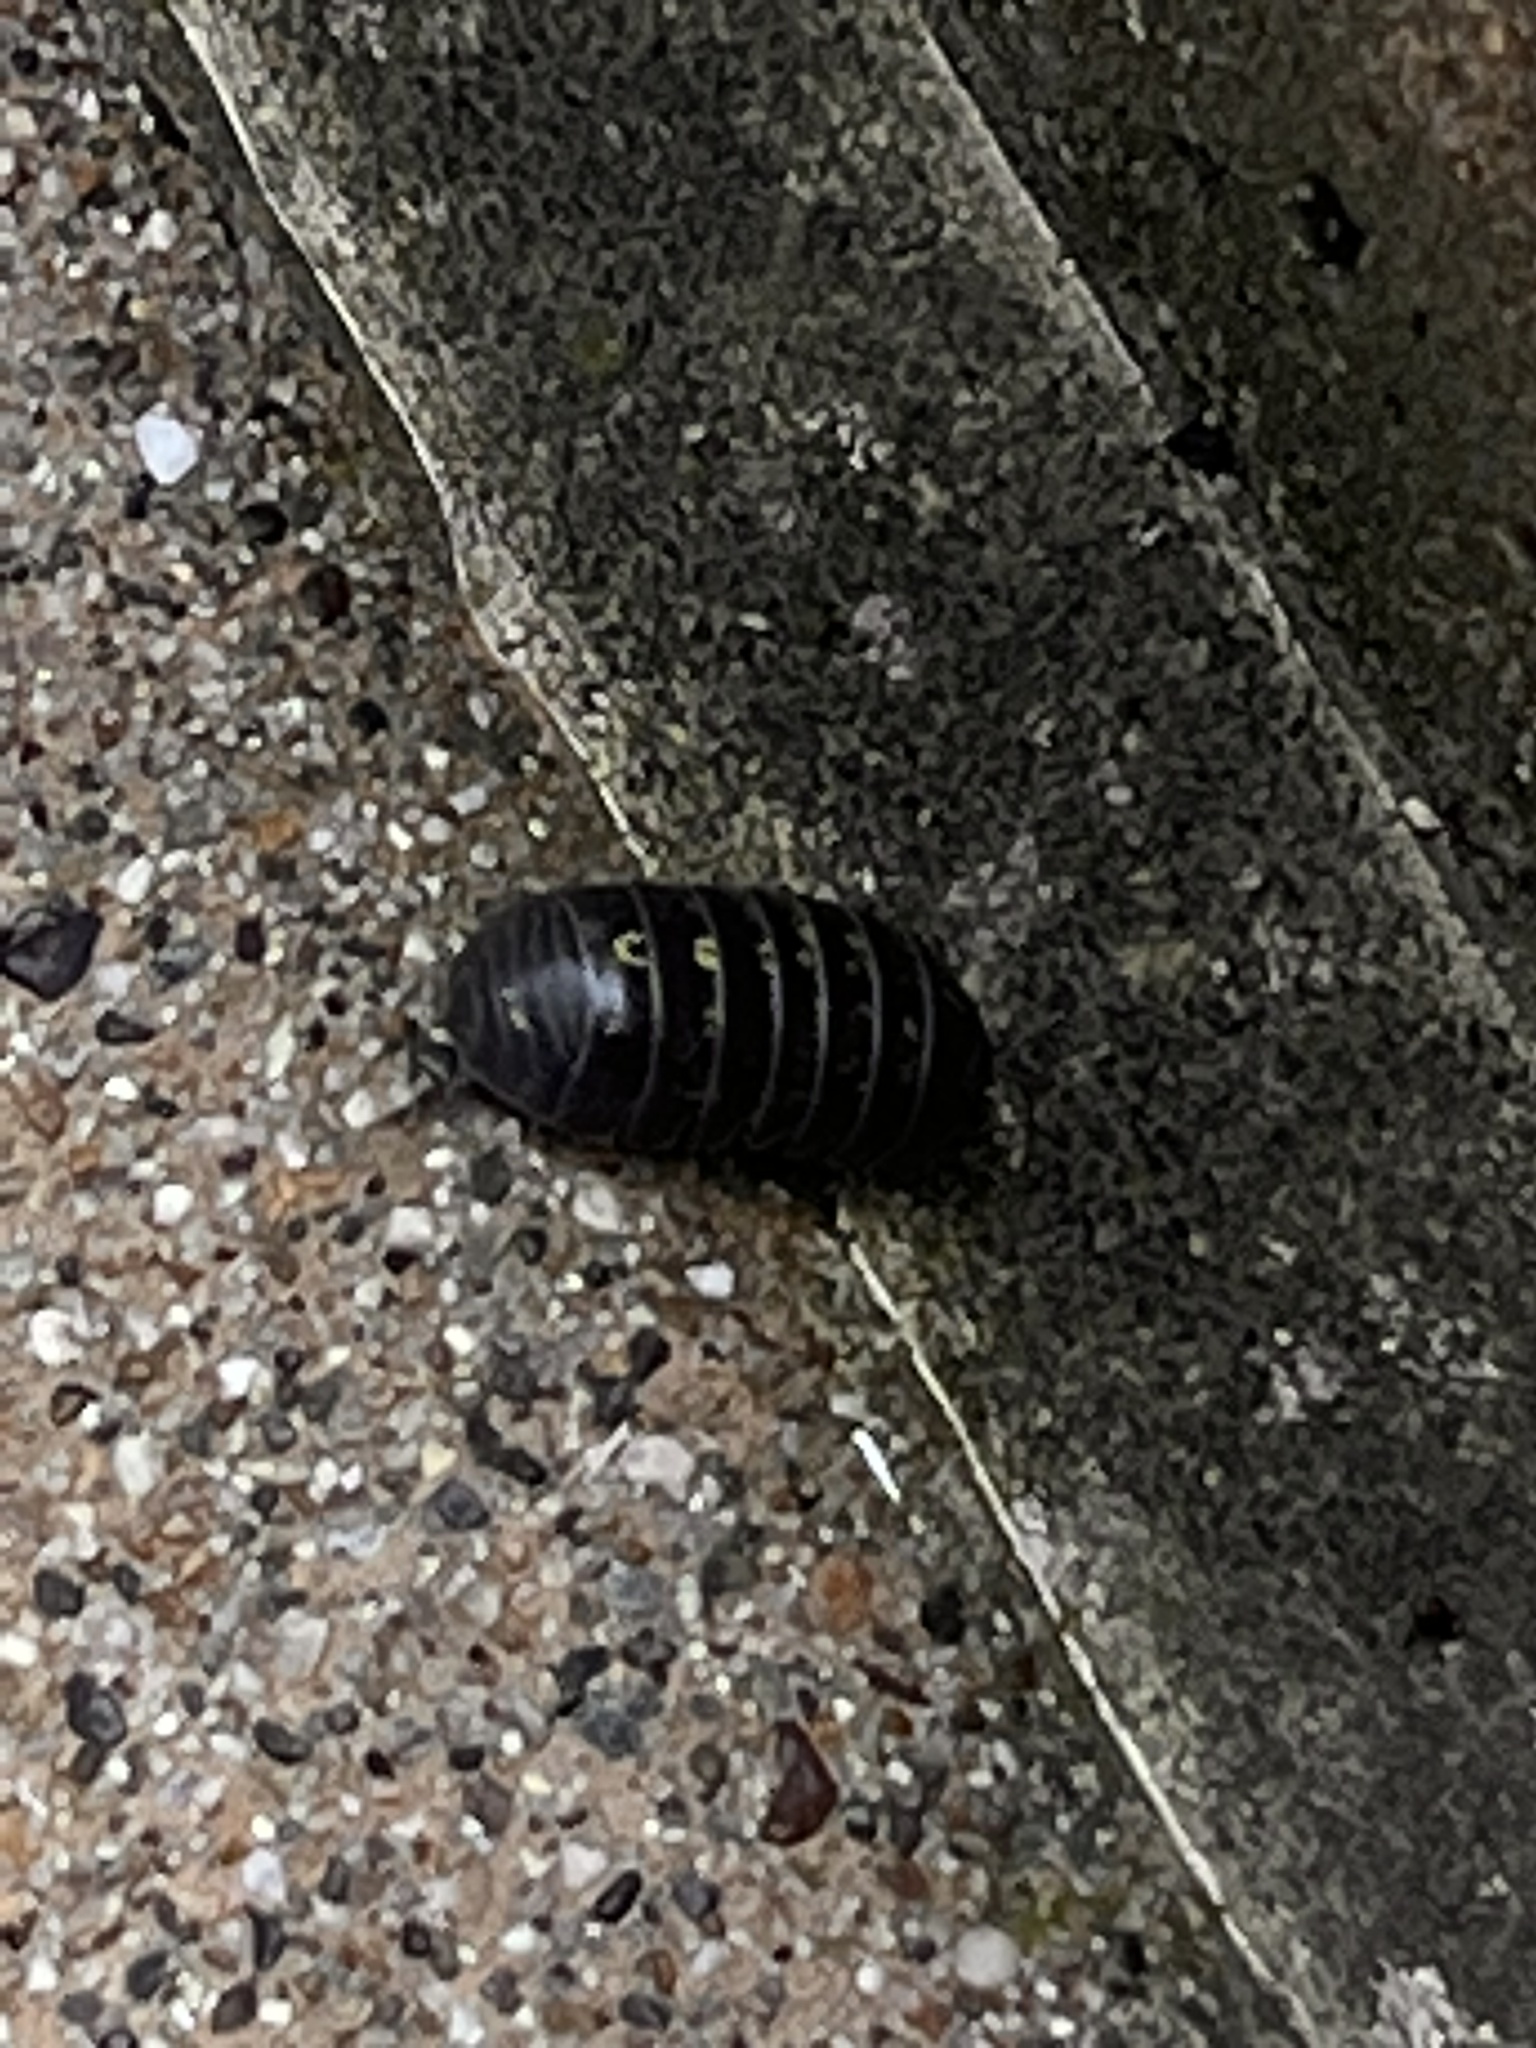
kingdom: Animalia
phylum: Arthropoda
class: Malacostraca
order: Isopoda
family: Armadillidiidae
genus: Armadillidium
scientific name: Armadillidium vulgare
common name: Common pill woodlouse
